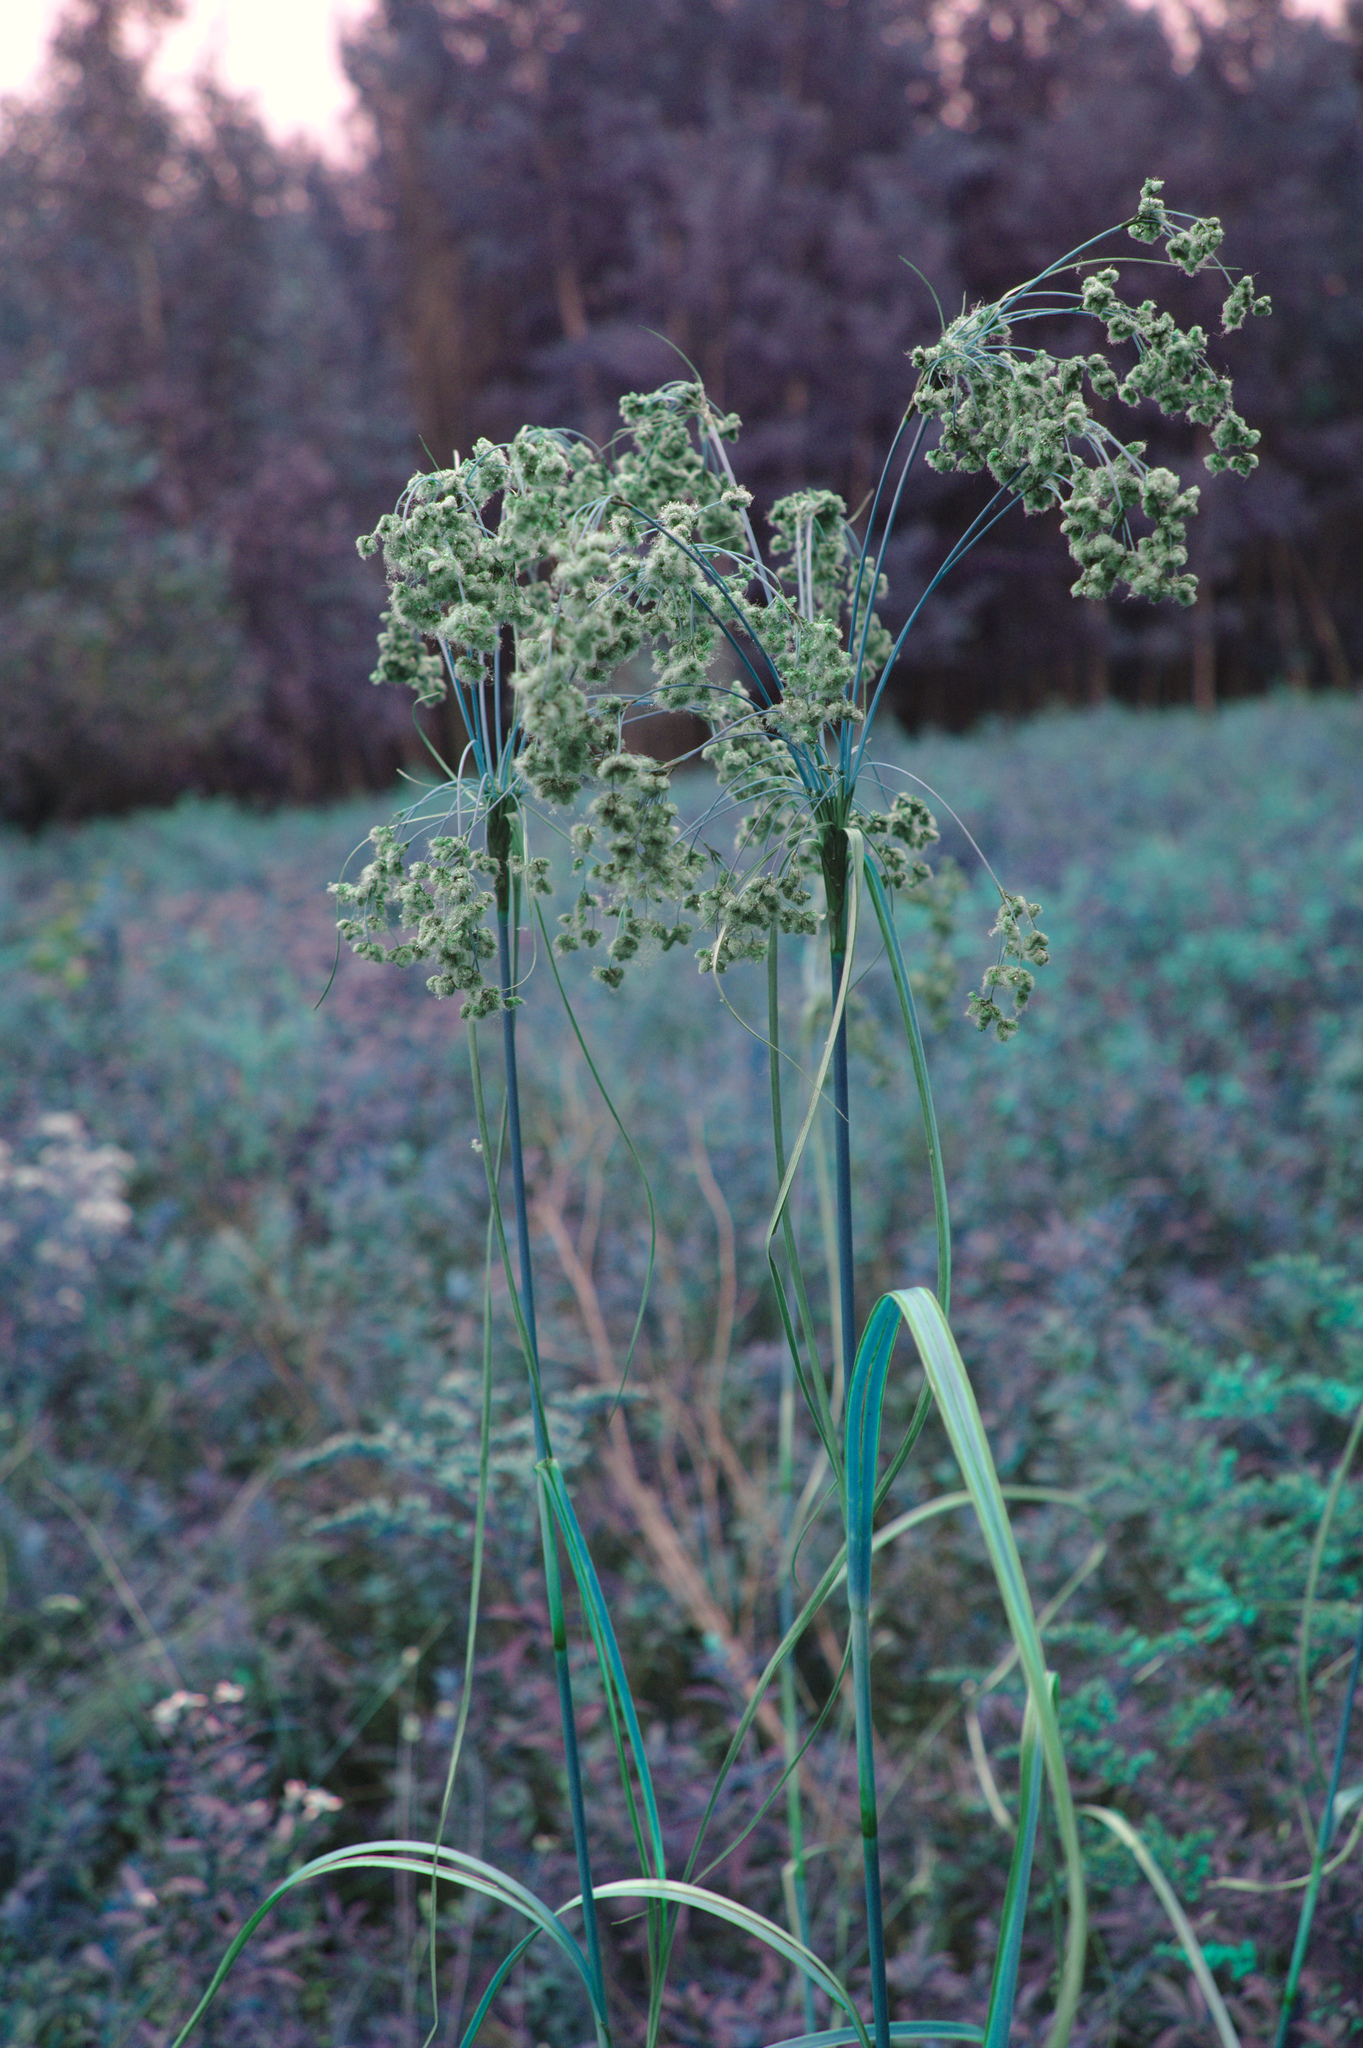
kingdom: Plantae
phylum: Tracheophyta
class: Liliopsida
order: Poales
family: Cyperaceae
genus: Scirpus
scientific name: Scirpus cyperinus
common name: Black-sheathed bulrush
